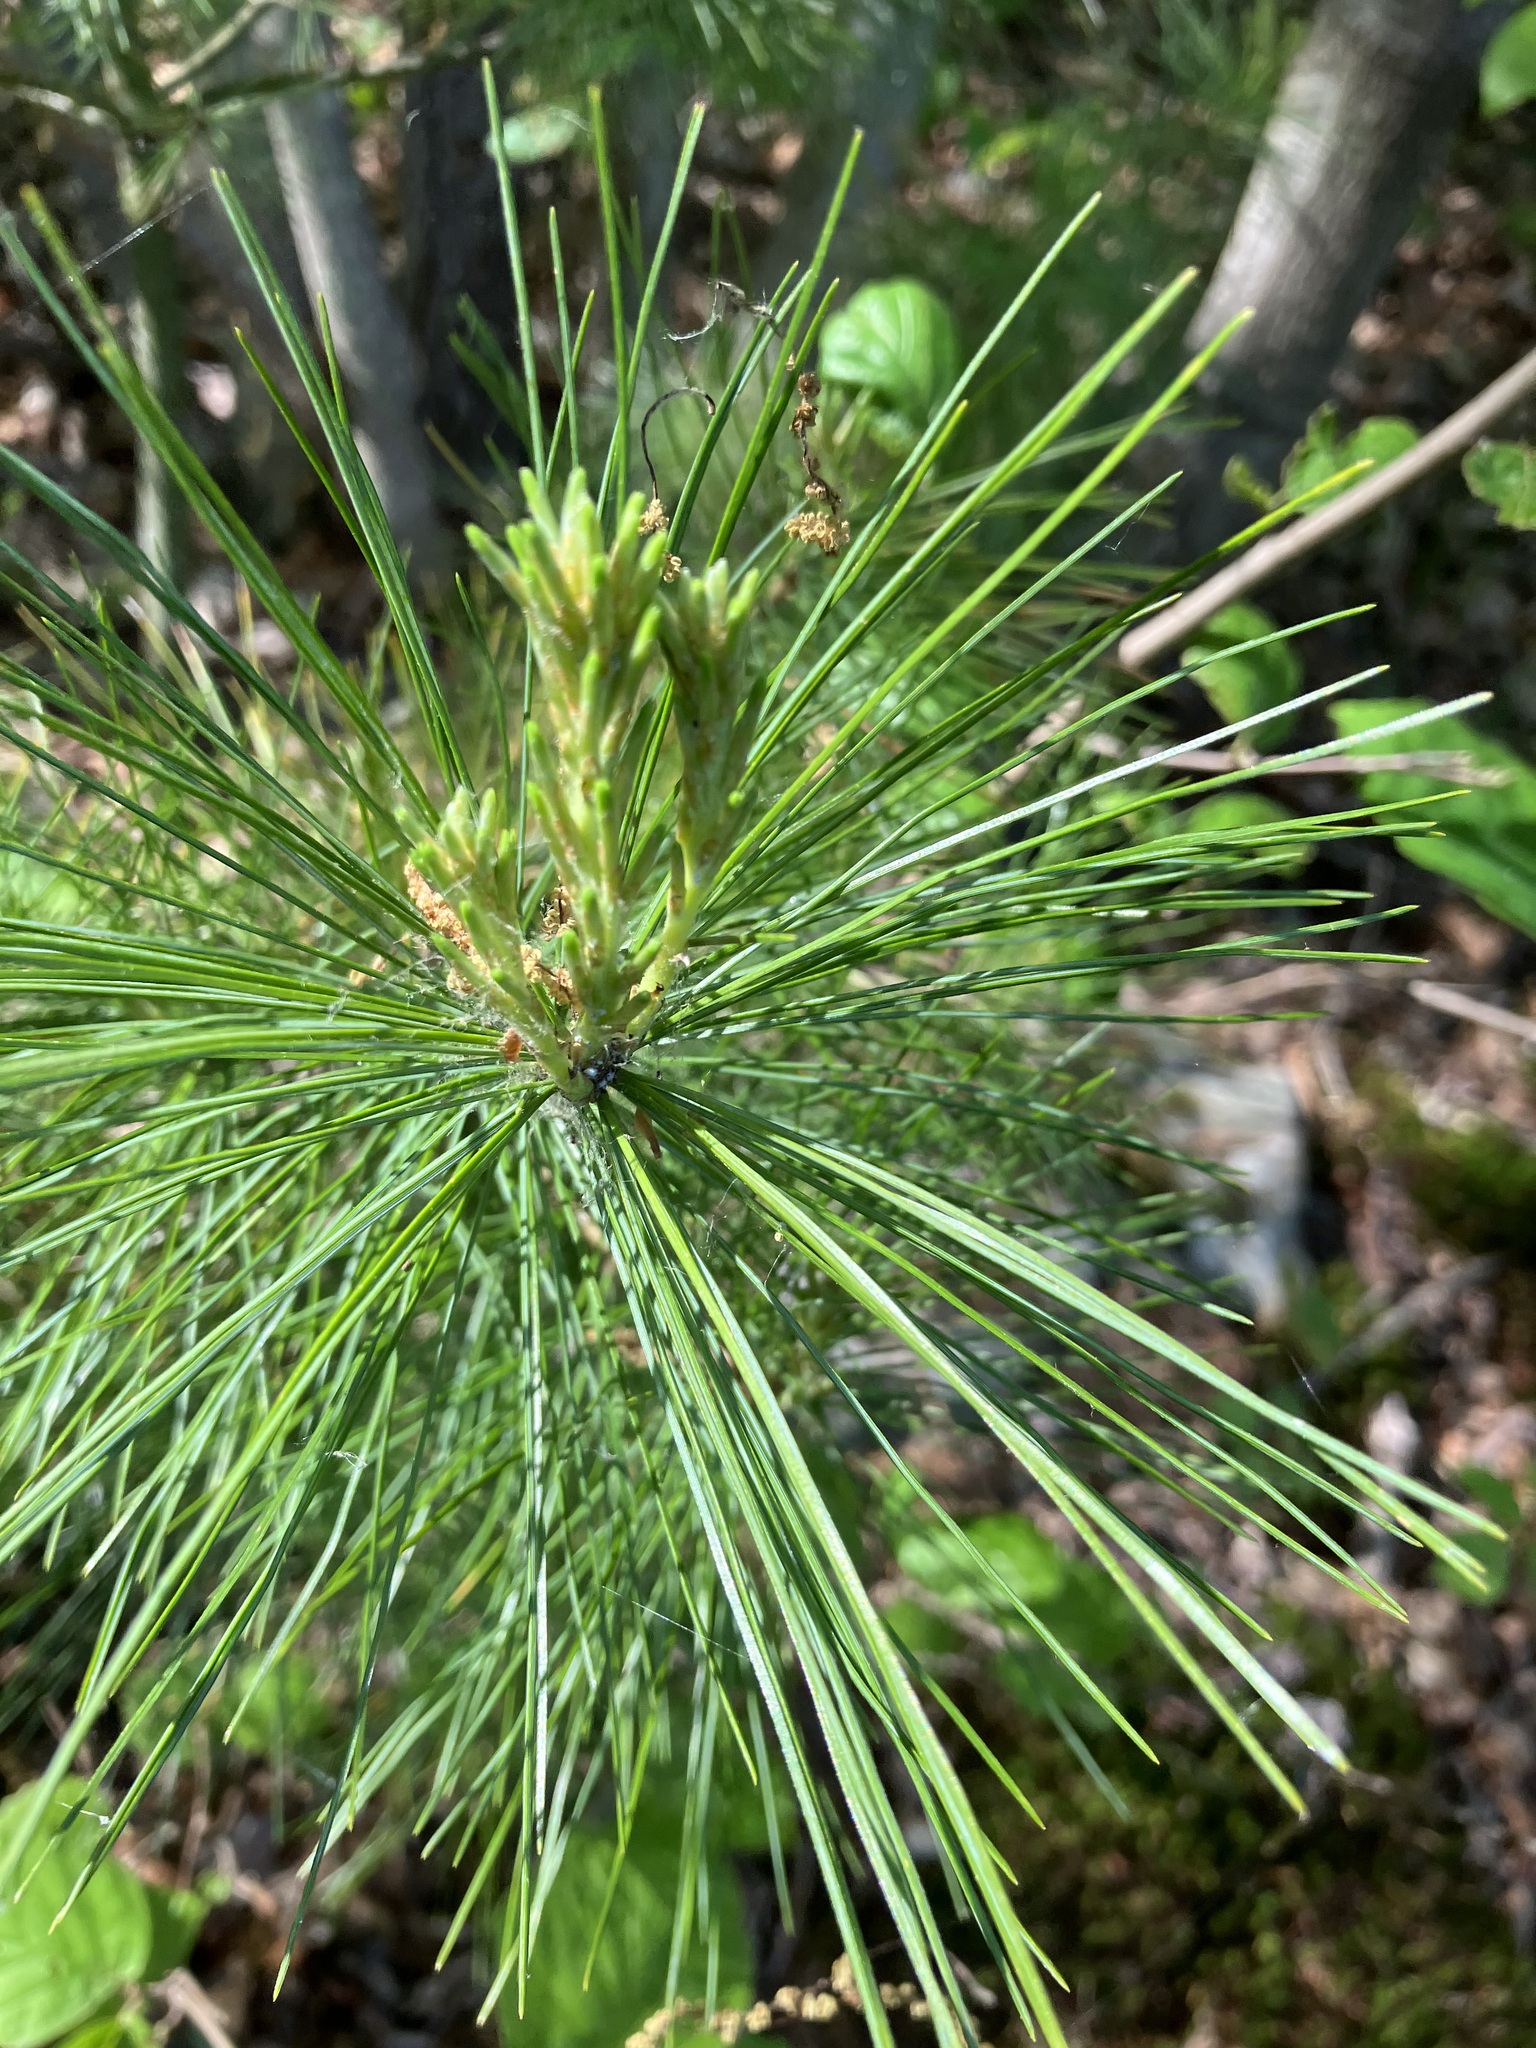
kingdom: Plantae
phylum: Tracheophyta
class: Pinopsida
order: Pinales
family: Pinaceae
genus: Pinus
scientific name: Pinus strobus
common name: Weymouth pine
